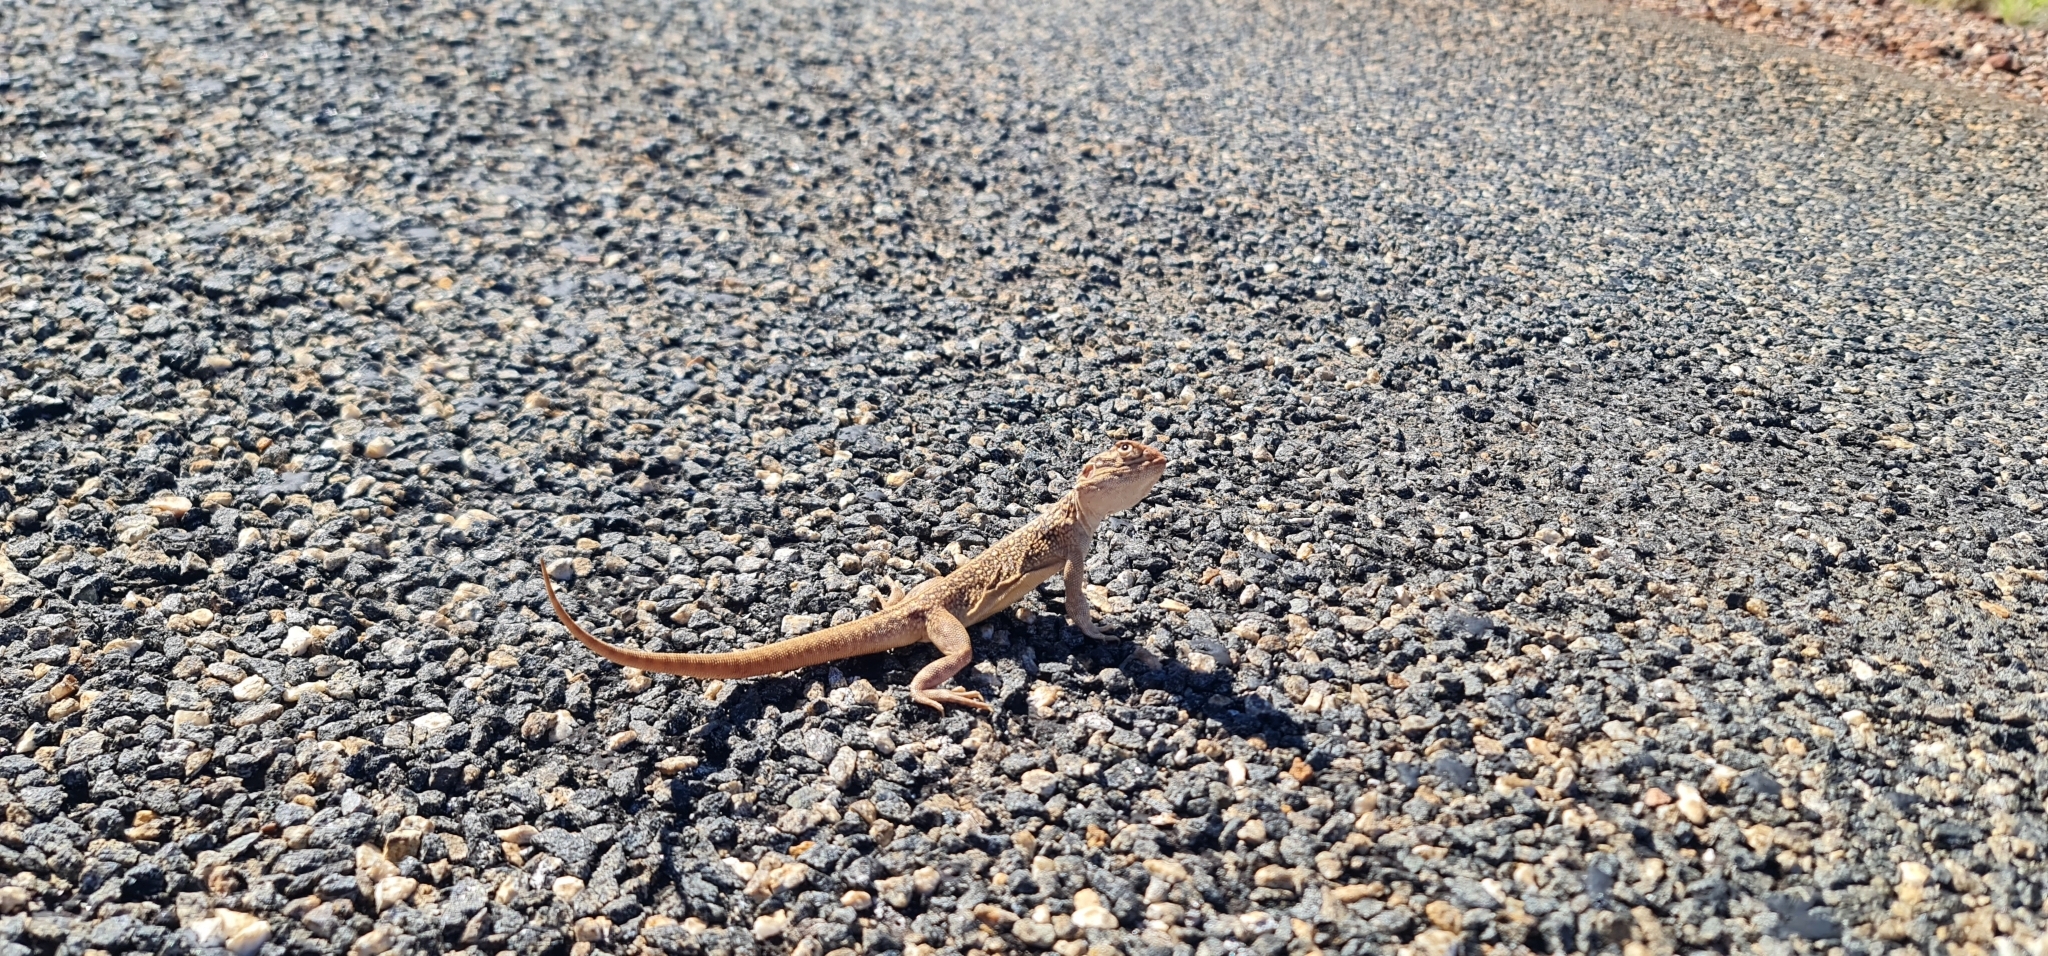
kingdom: Animalia
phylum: Chordata
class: Squamata
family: Agamidae
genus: Ctenophorus
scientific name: Ctenophorus nuchalis
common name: Central netted dragon
